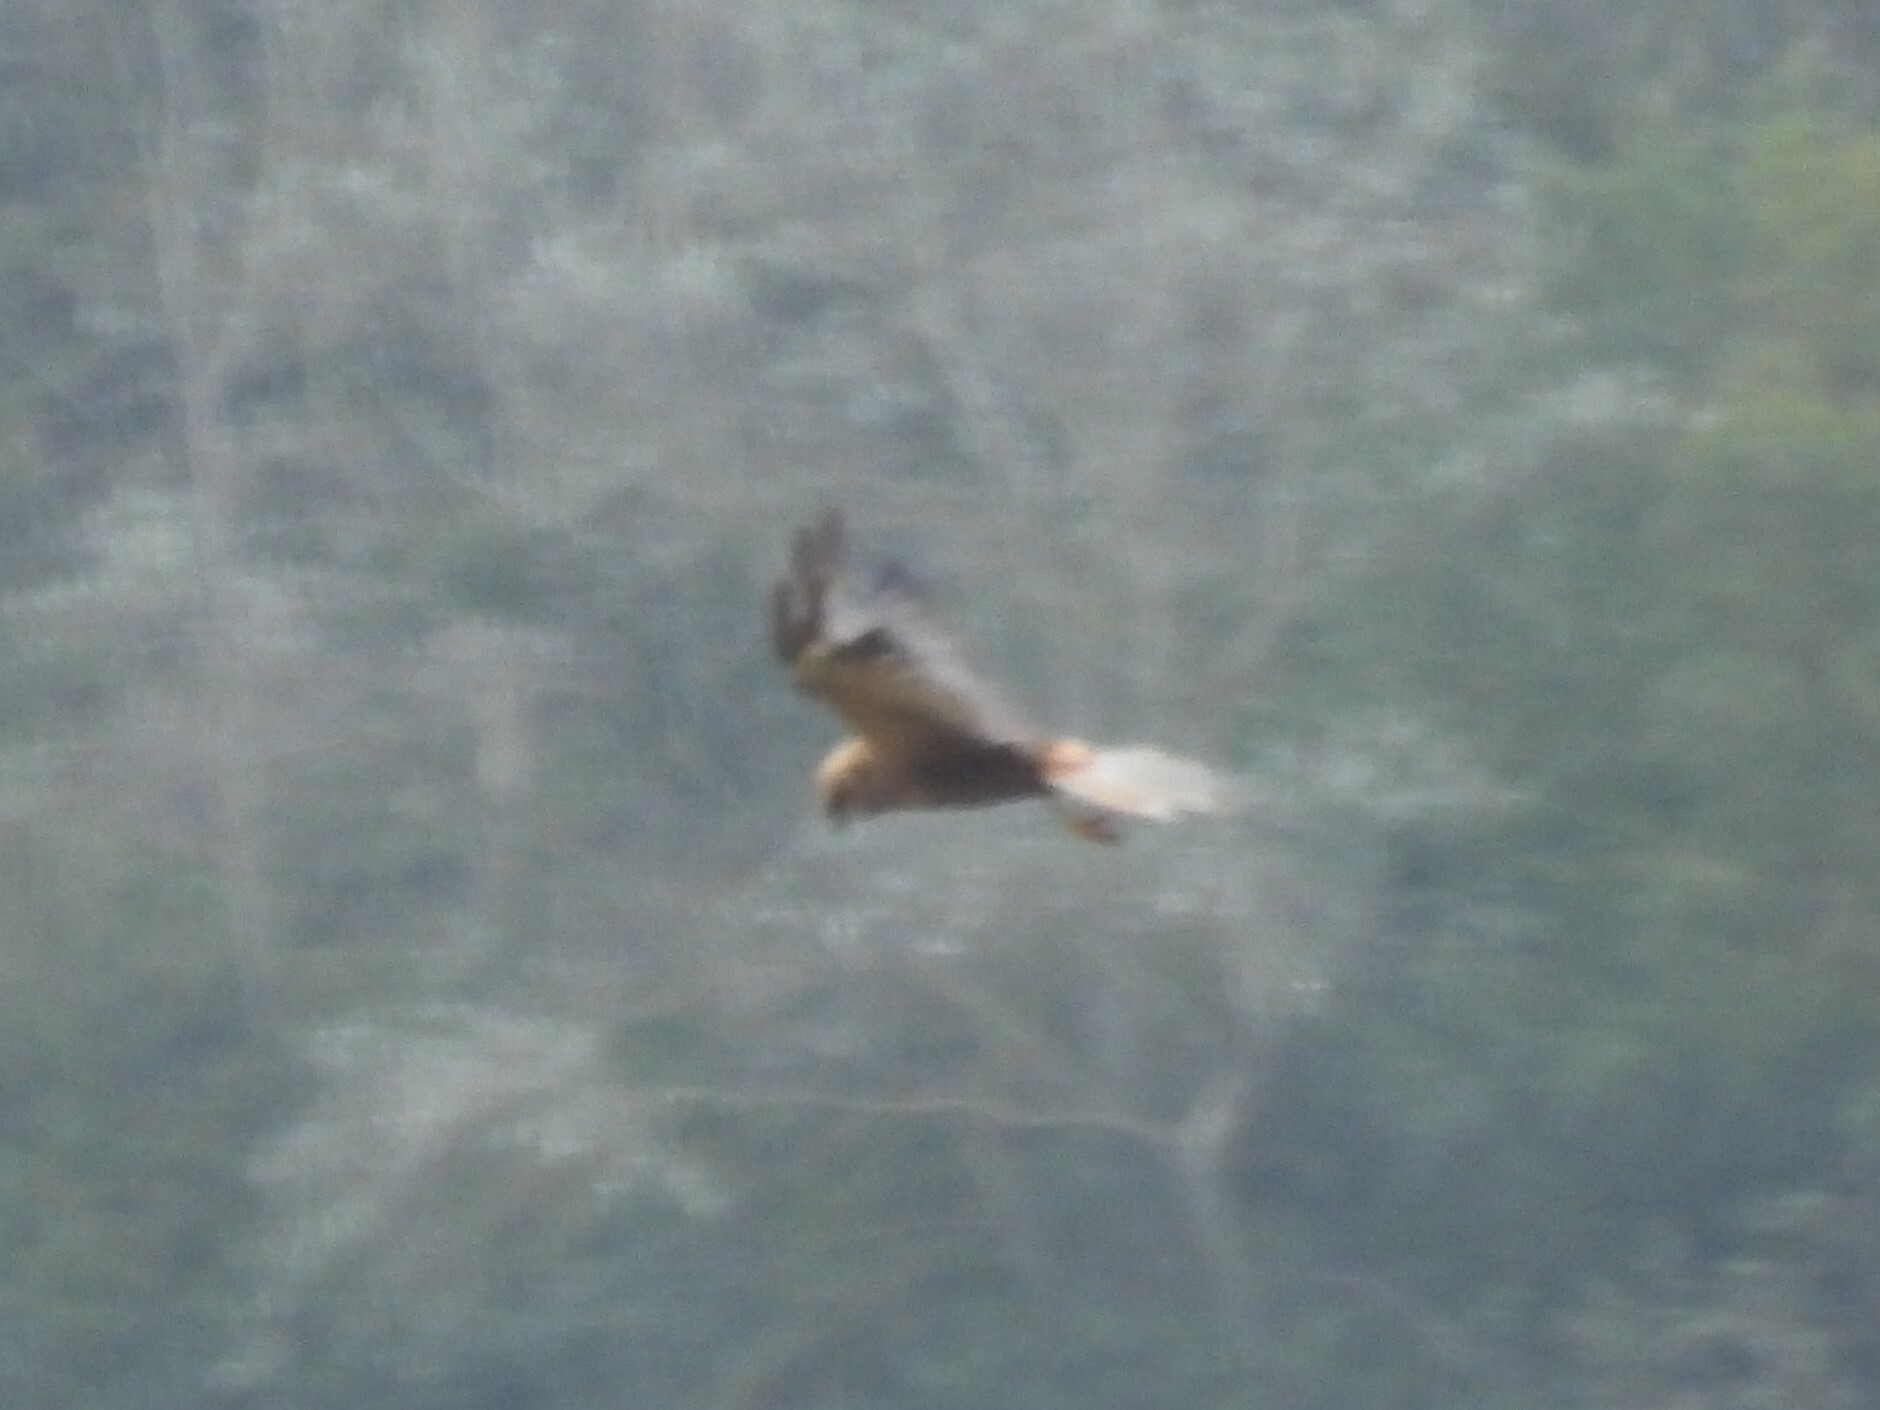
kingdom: Animalia
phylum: Chordata
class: Aves
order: Accipitriformes
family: Accipitridae
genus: Circus
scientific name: Circus aeruginosus
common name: Western marsh harrier
